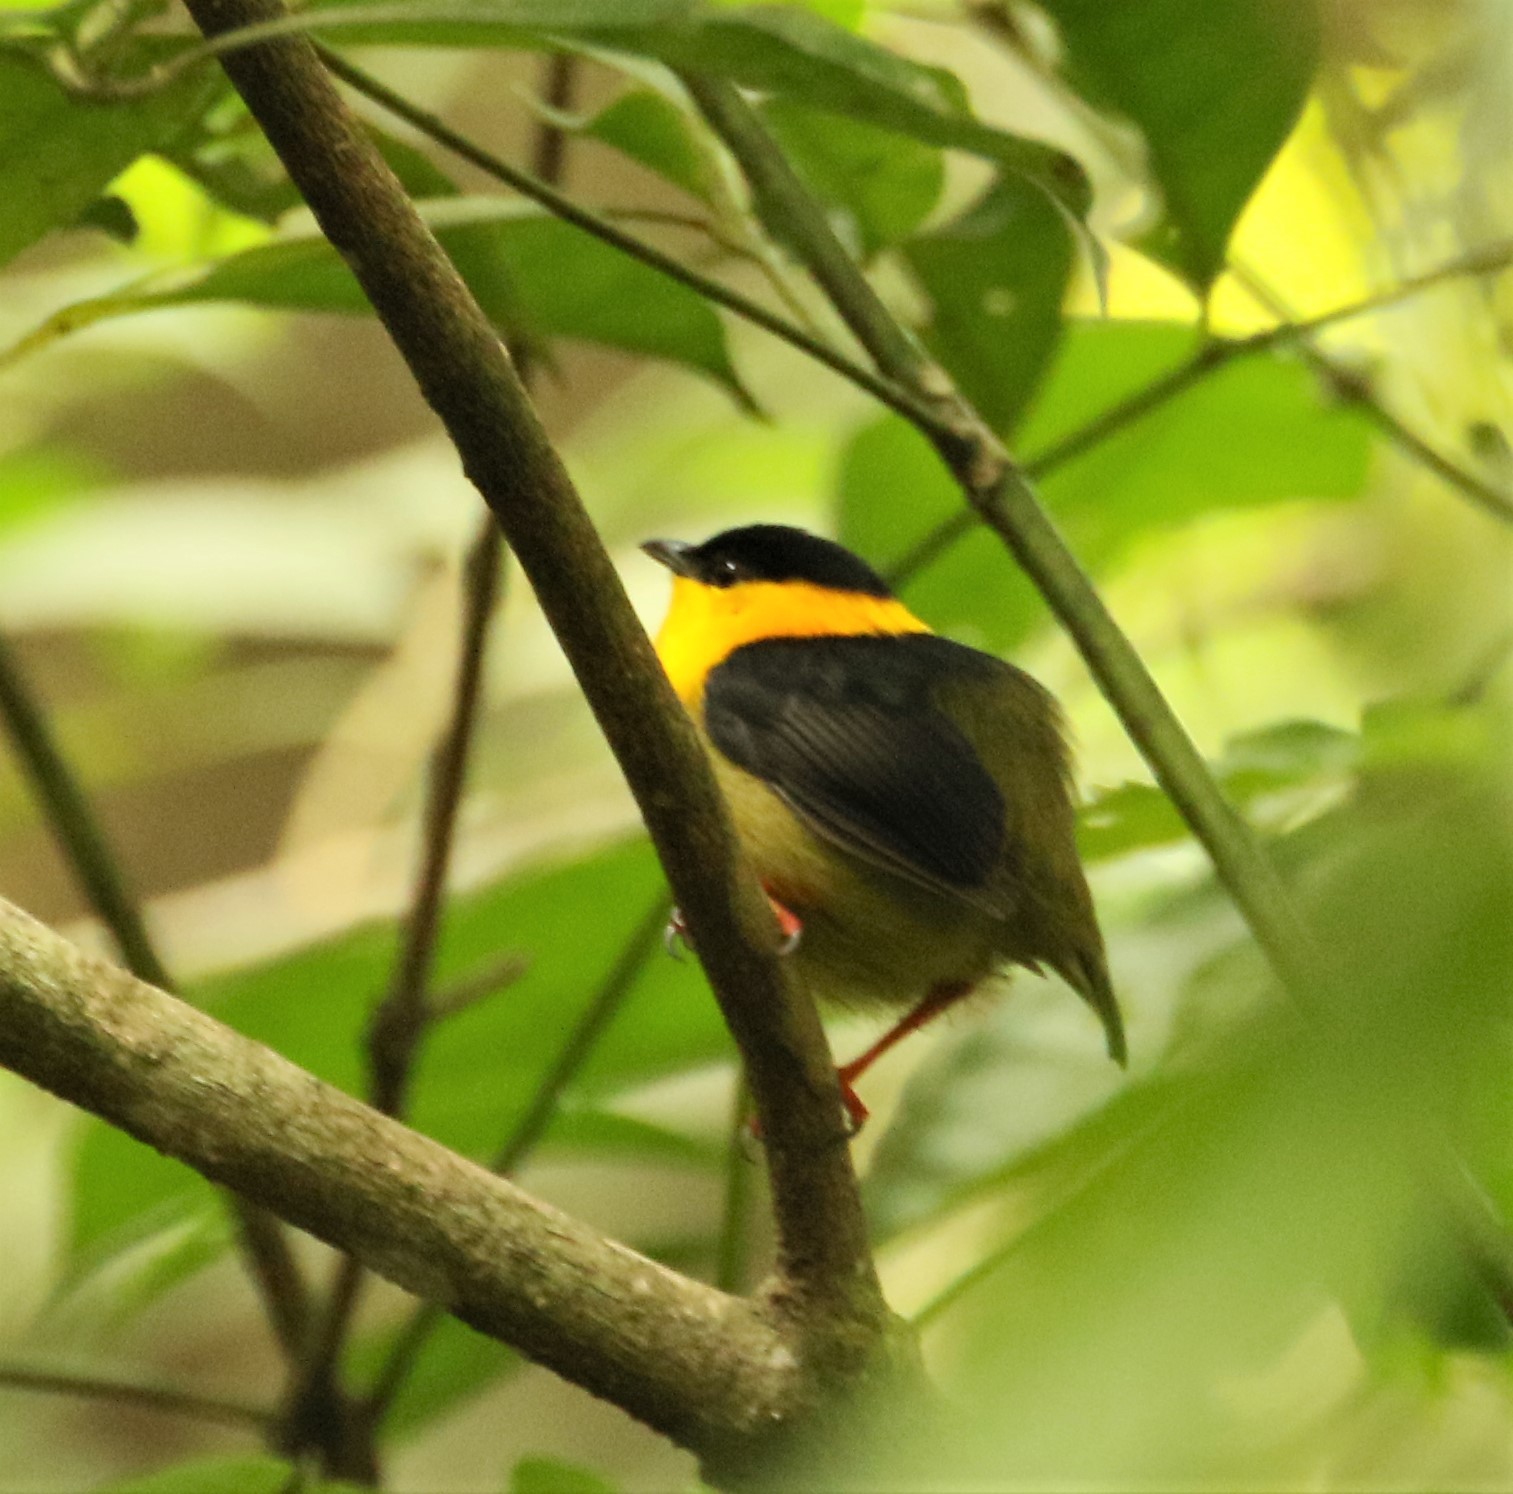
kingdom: Animalia
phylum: Chordata
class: Aves
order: Passeriformes
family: Pipridae
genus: Manacus
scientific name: Manacus vitellinus
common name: Golden-collared manakin
